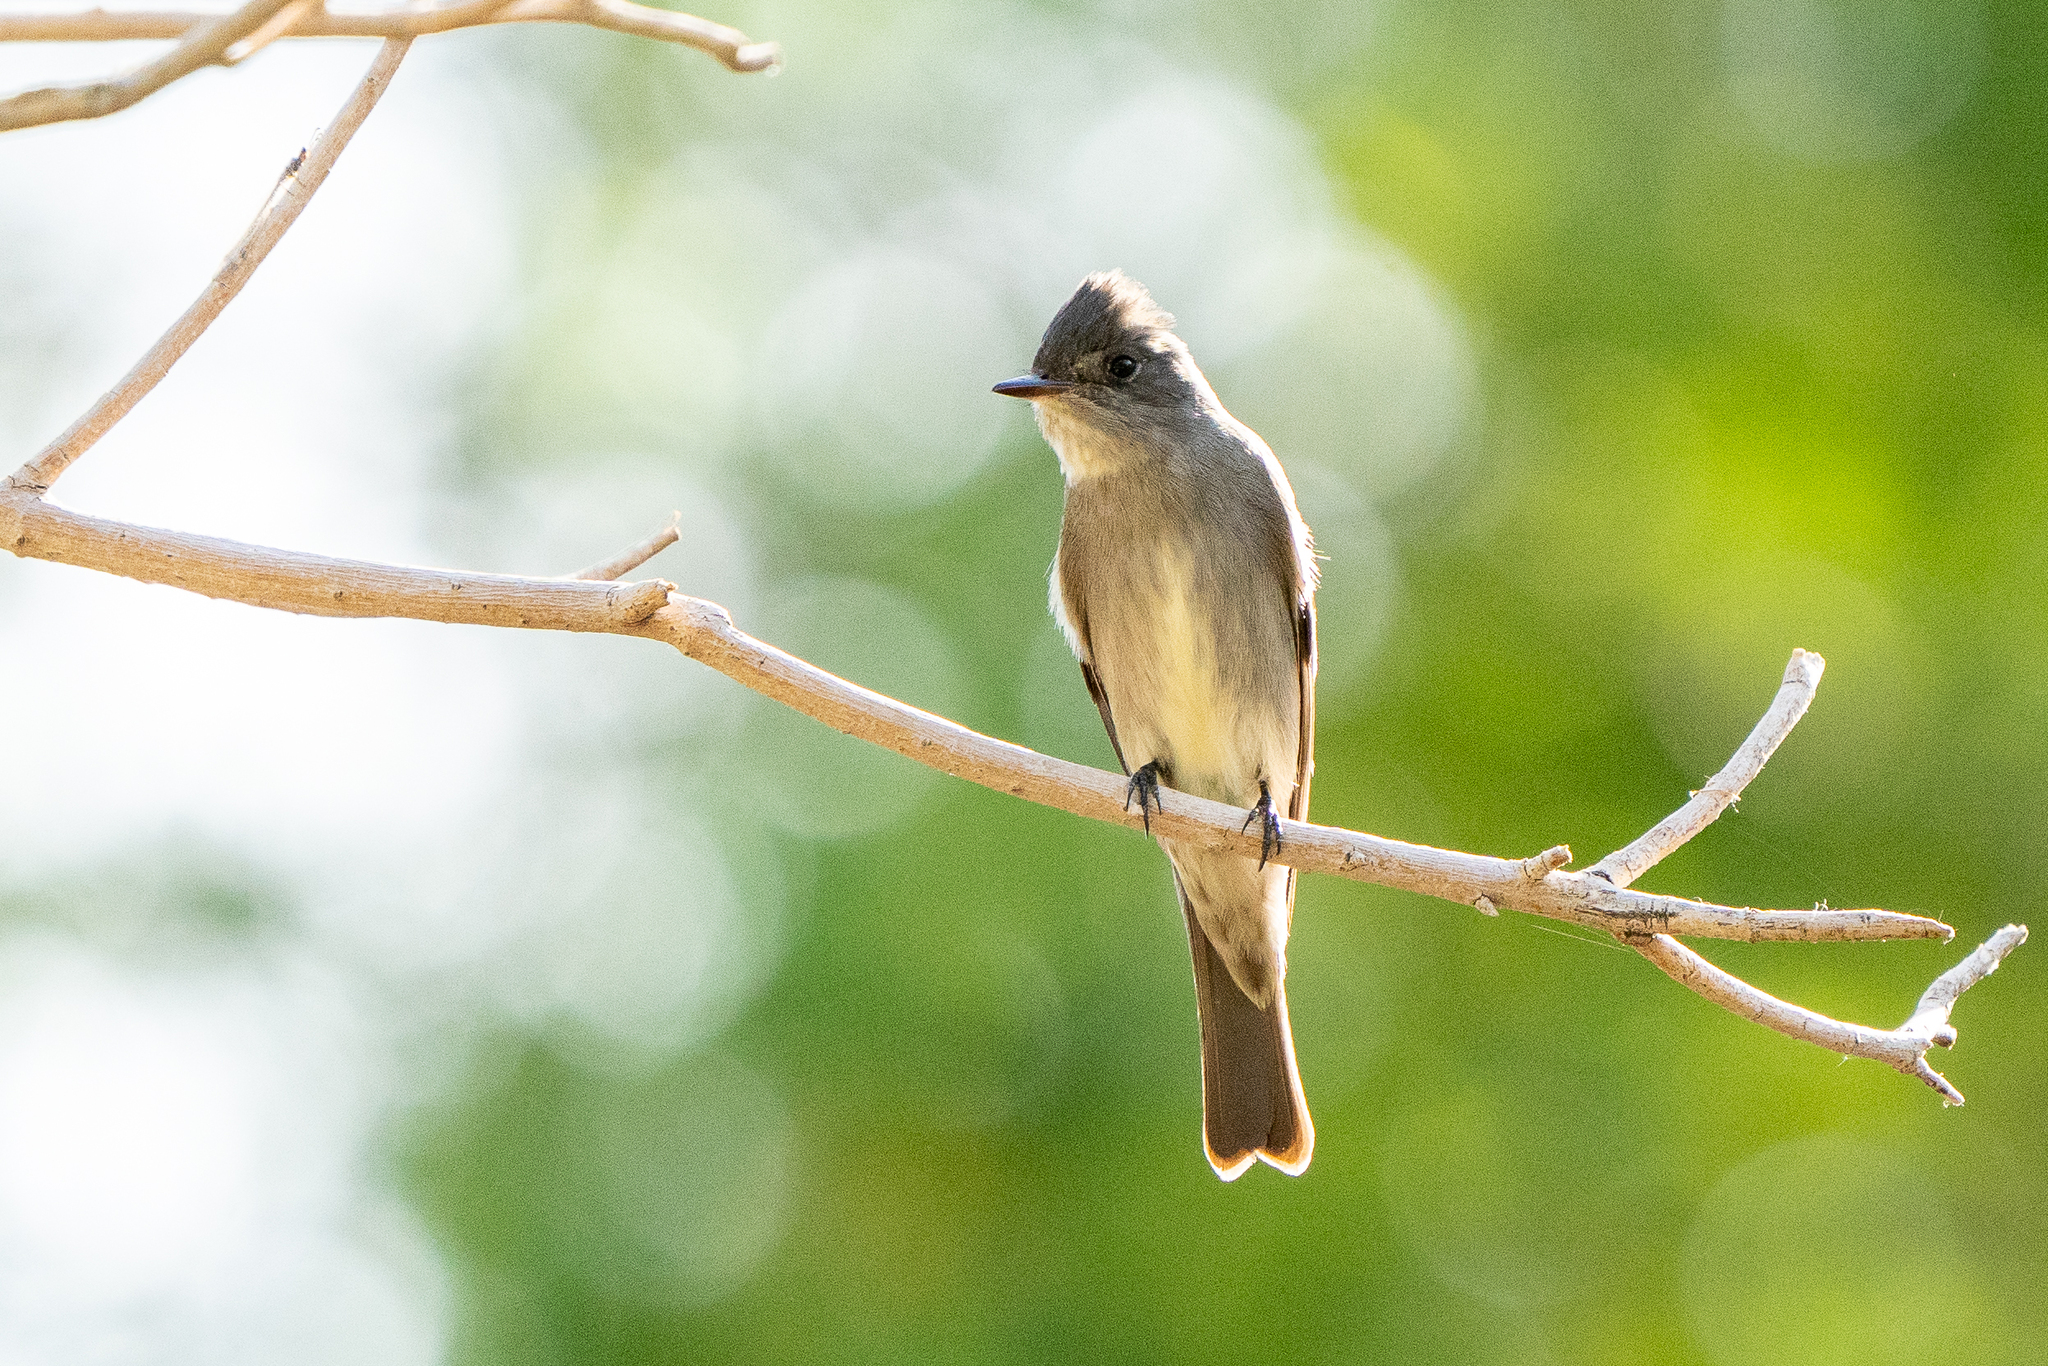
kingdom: Animalia
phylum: Chordata
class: Aves
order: Passeriformes
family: Tyrannidae
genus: Contopus
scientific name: Contopus sordidulus
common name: Western wood-pewee
